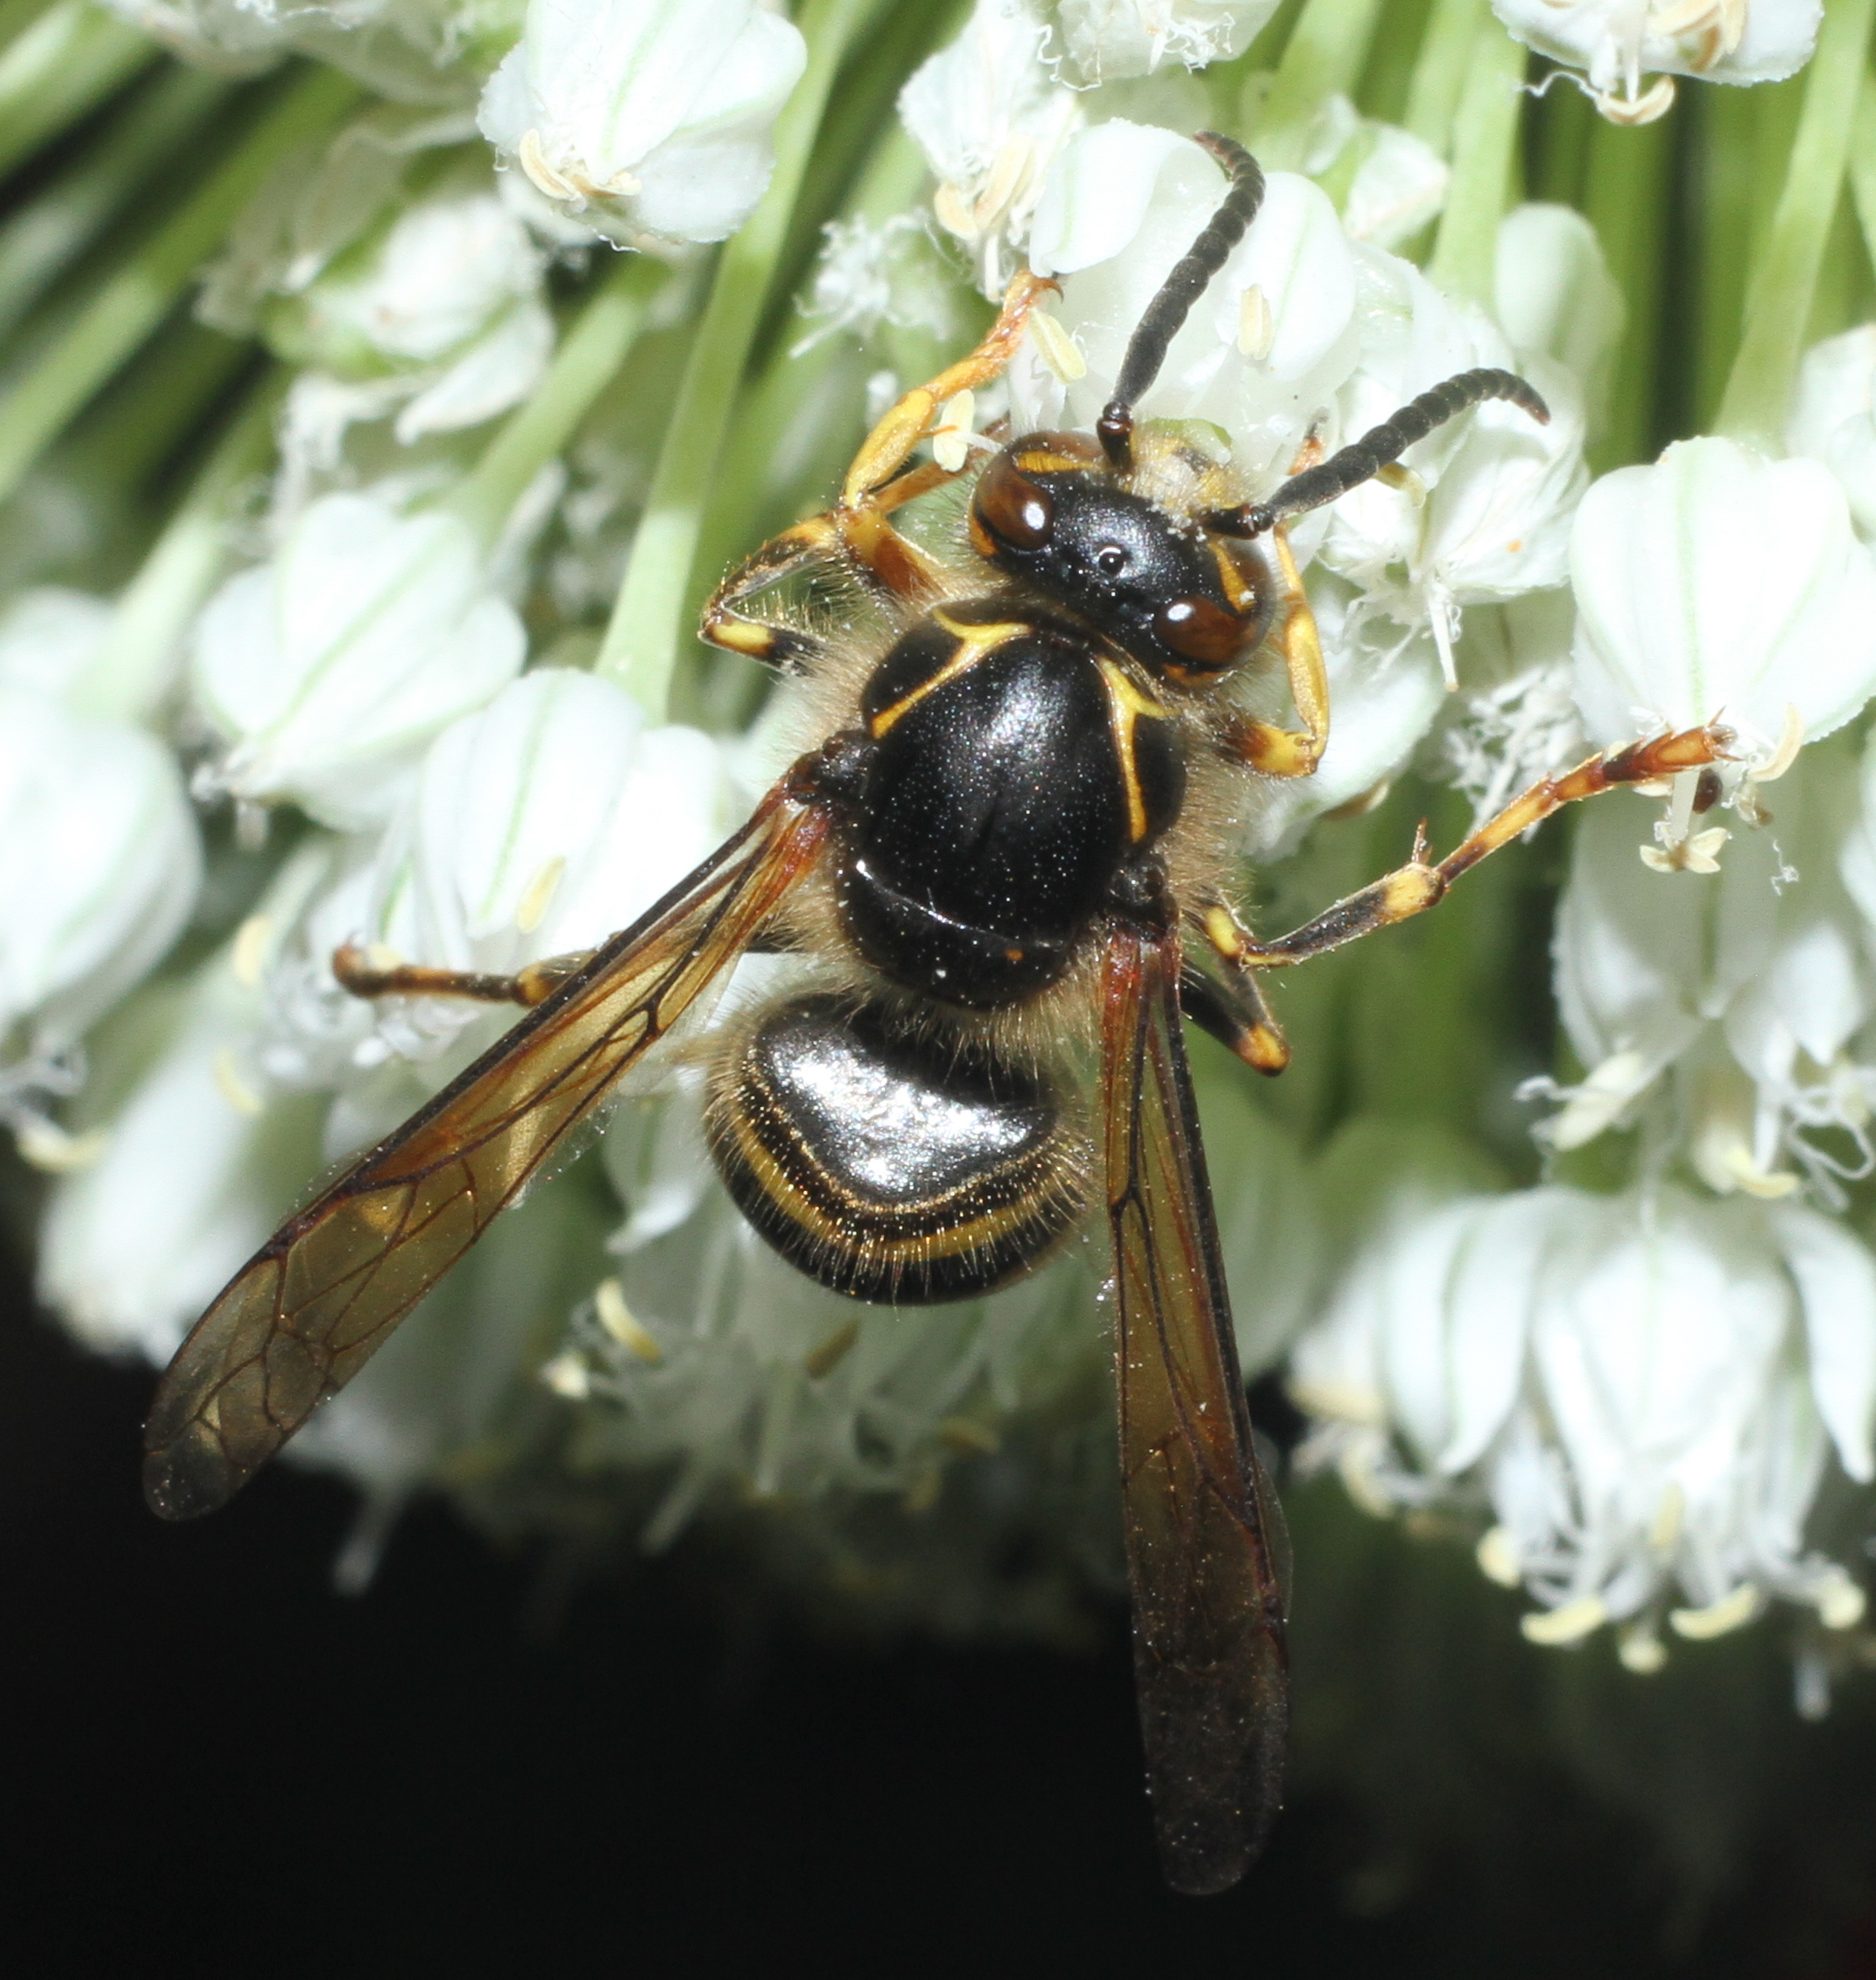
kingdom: Animalia
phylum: Arthropoda
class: Insecta
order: Hymenoptera
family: Vespidae
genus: Dolichovespula
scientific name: Dolichovespula media
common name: Median wasp
